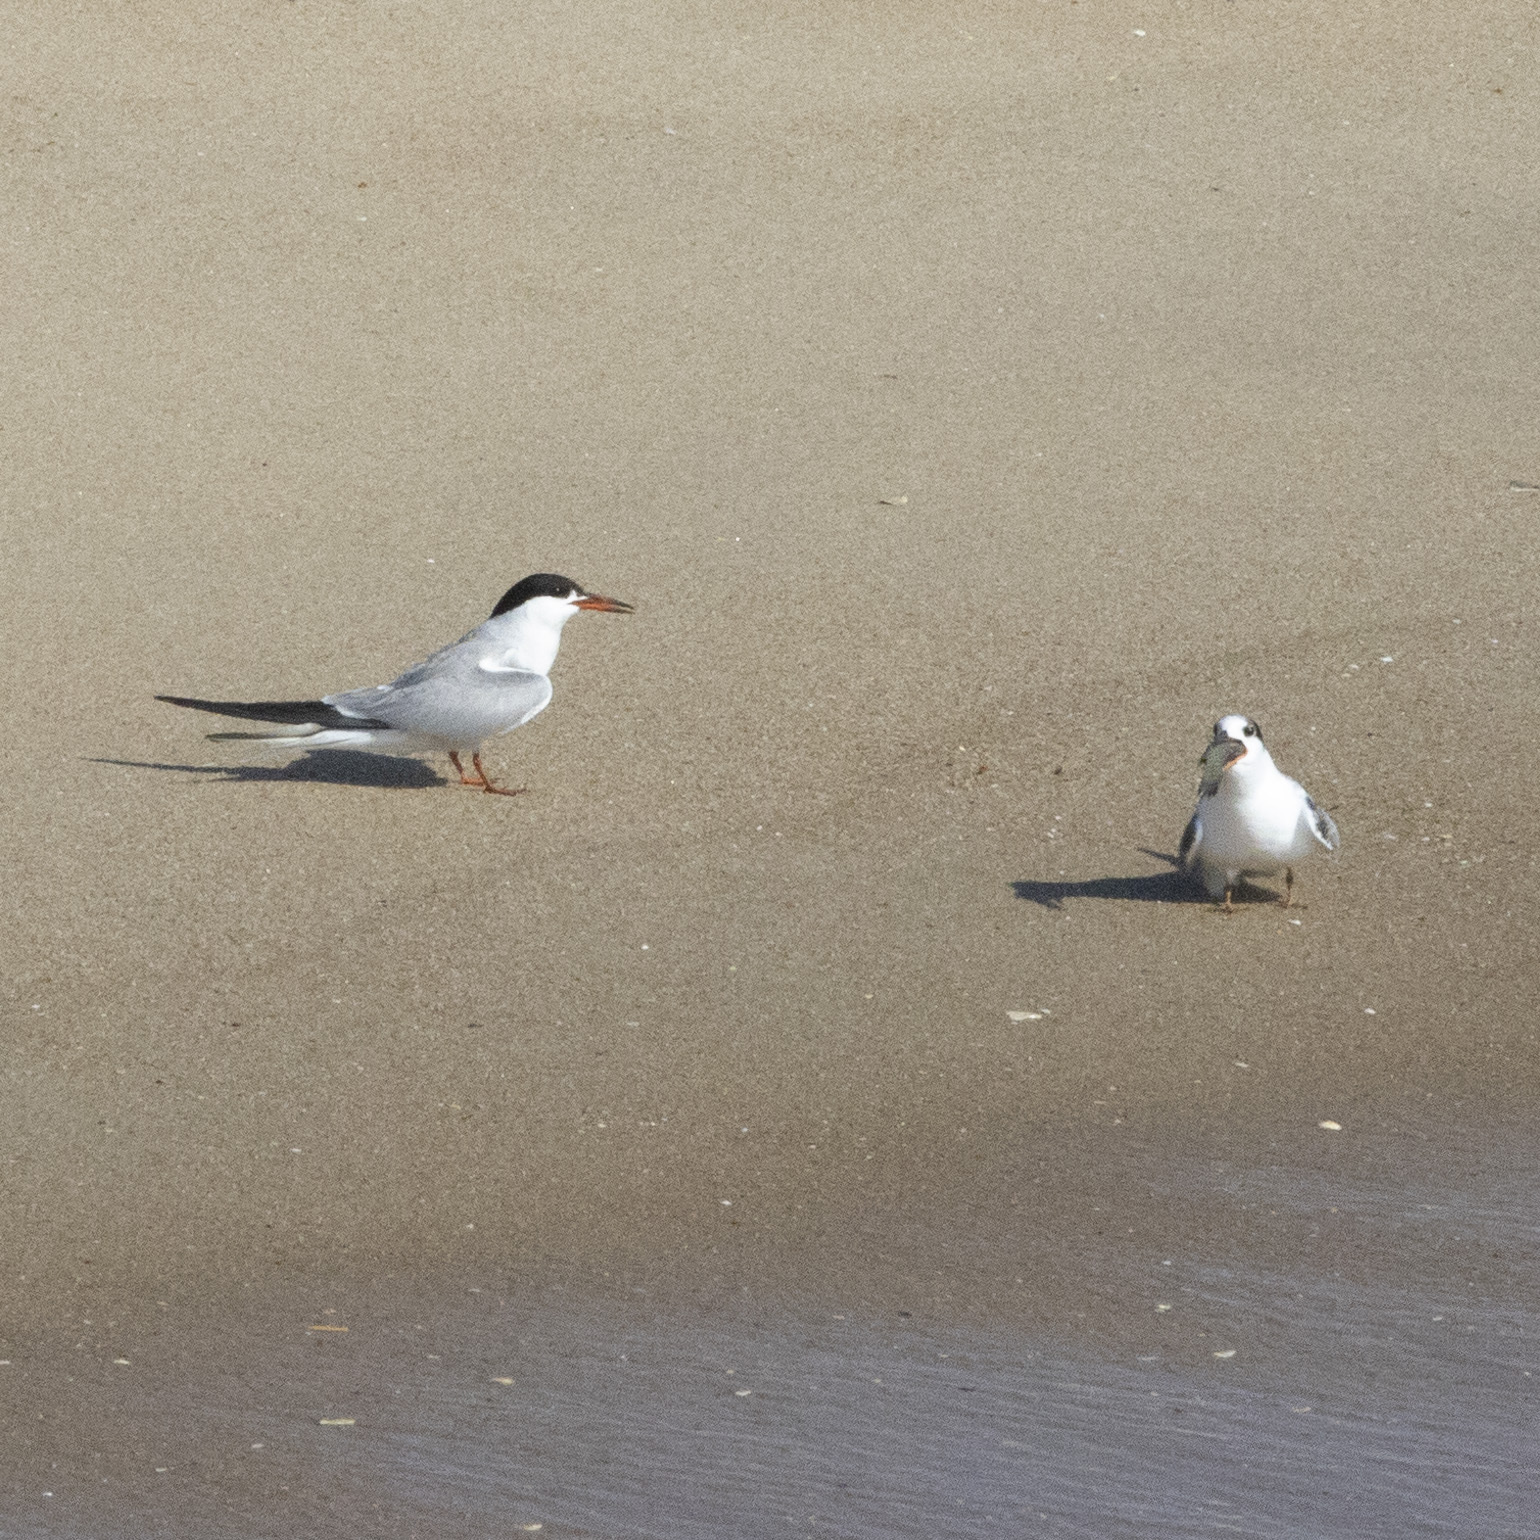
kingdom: Animalia
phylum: Chordata
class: Aves
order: Charadriiformes
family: Laridae
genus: Sterna
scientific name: Sterna hirundo
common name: Common tern
